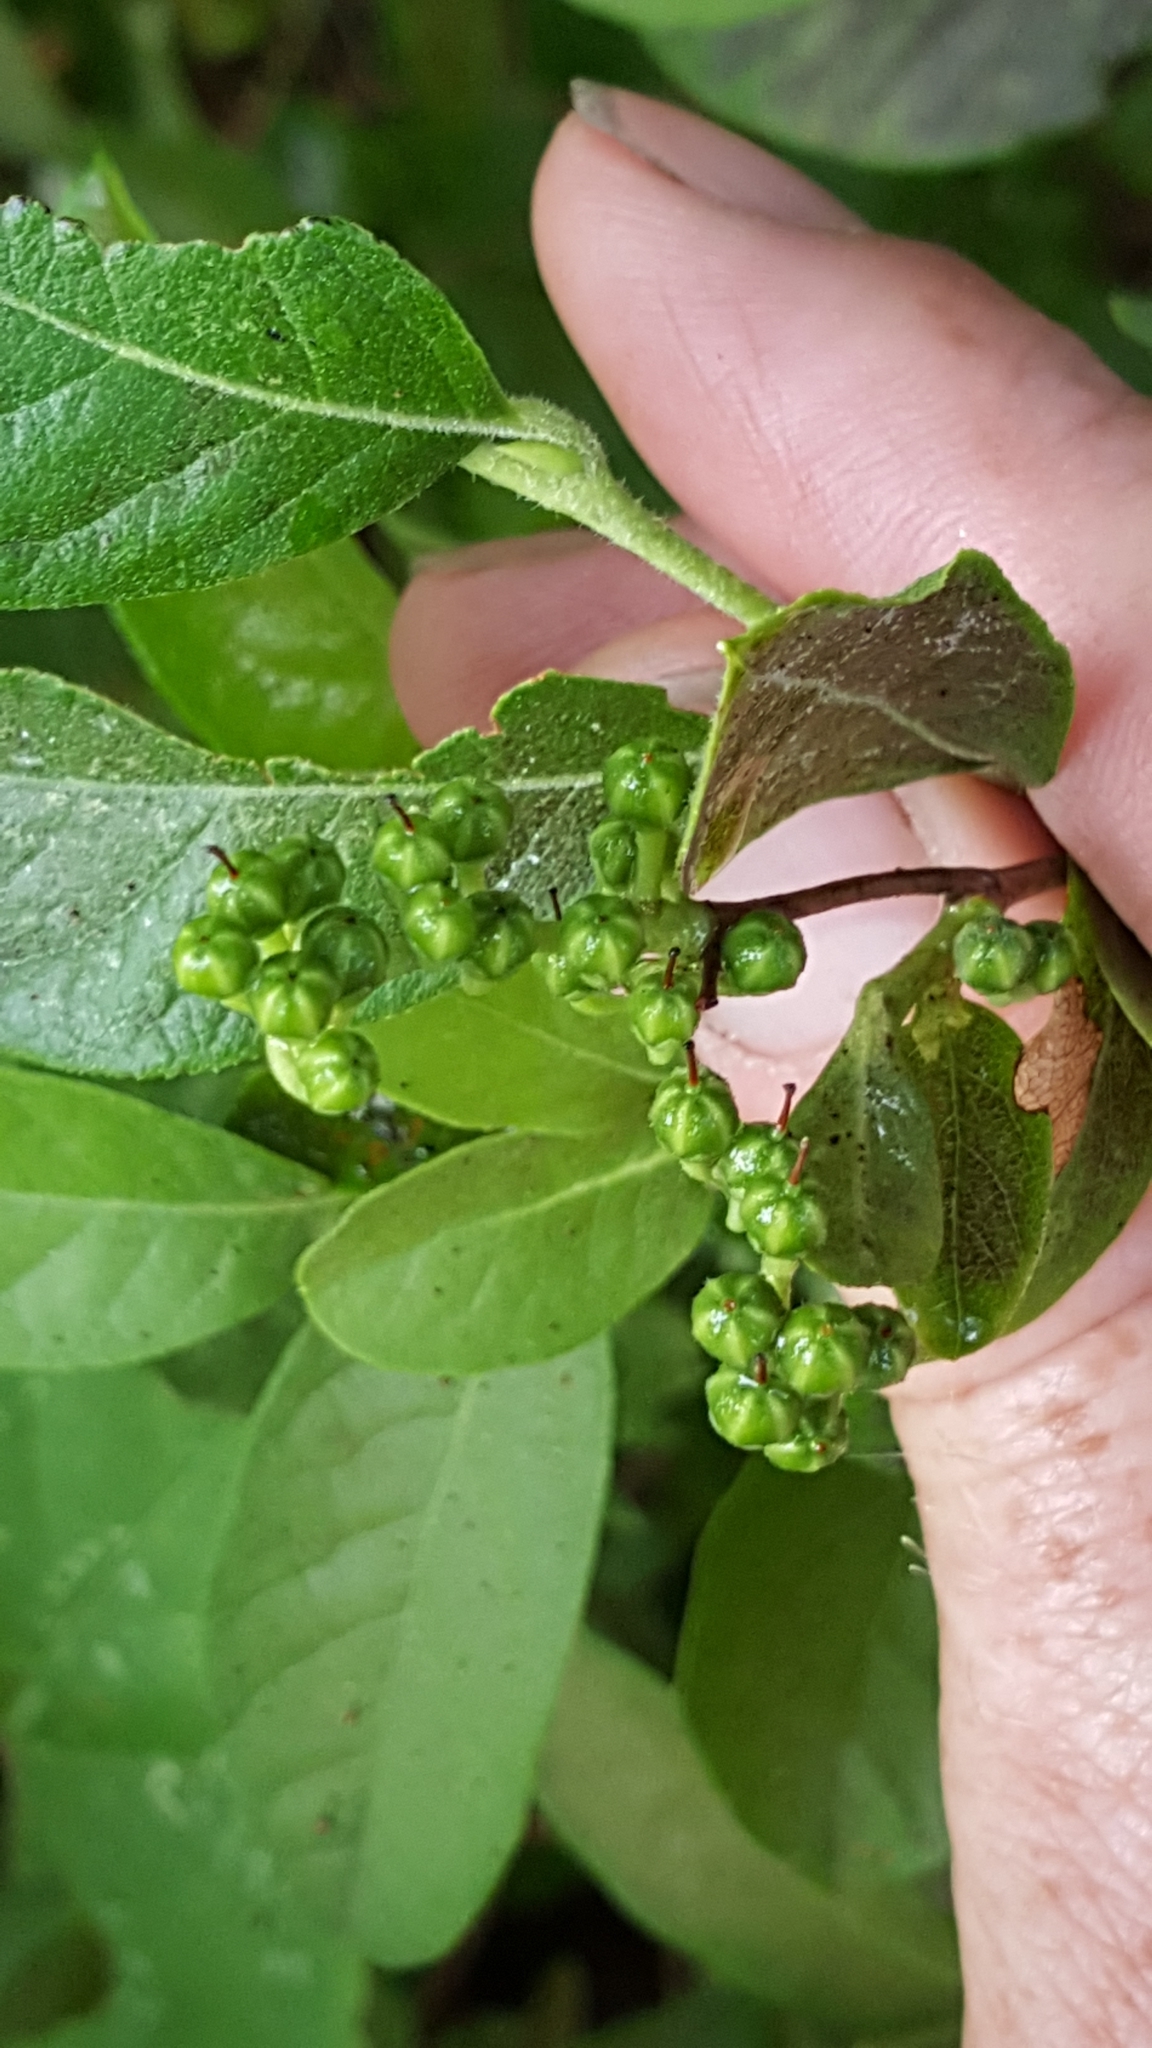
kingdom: Plantae
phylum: Tracheophyta
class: Magnoliopsida
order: Ericales
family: Ericaceae
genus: Lyonia
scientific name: Lyonia ligustrina
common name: Maleberry
